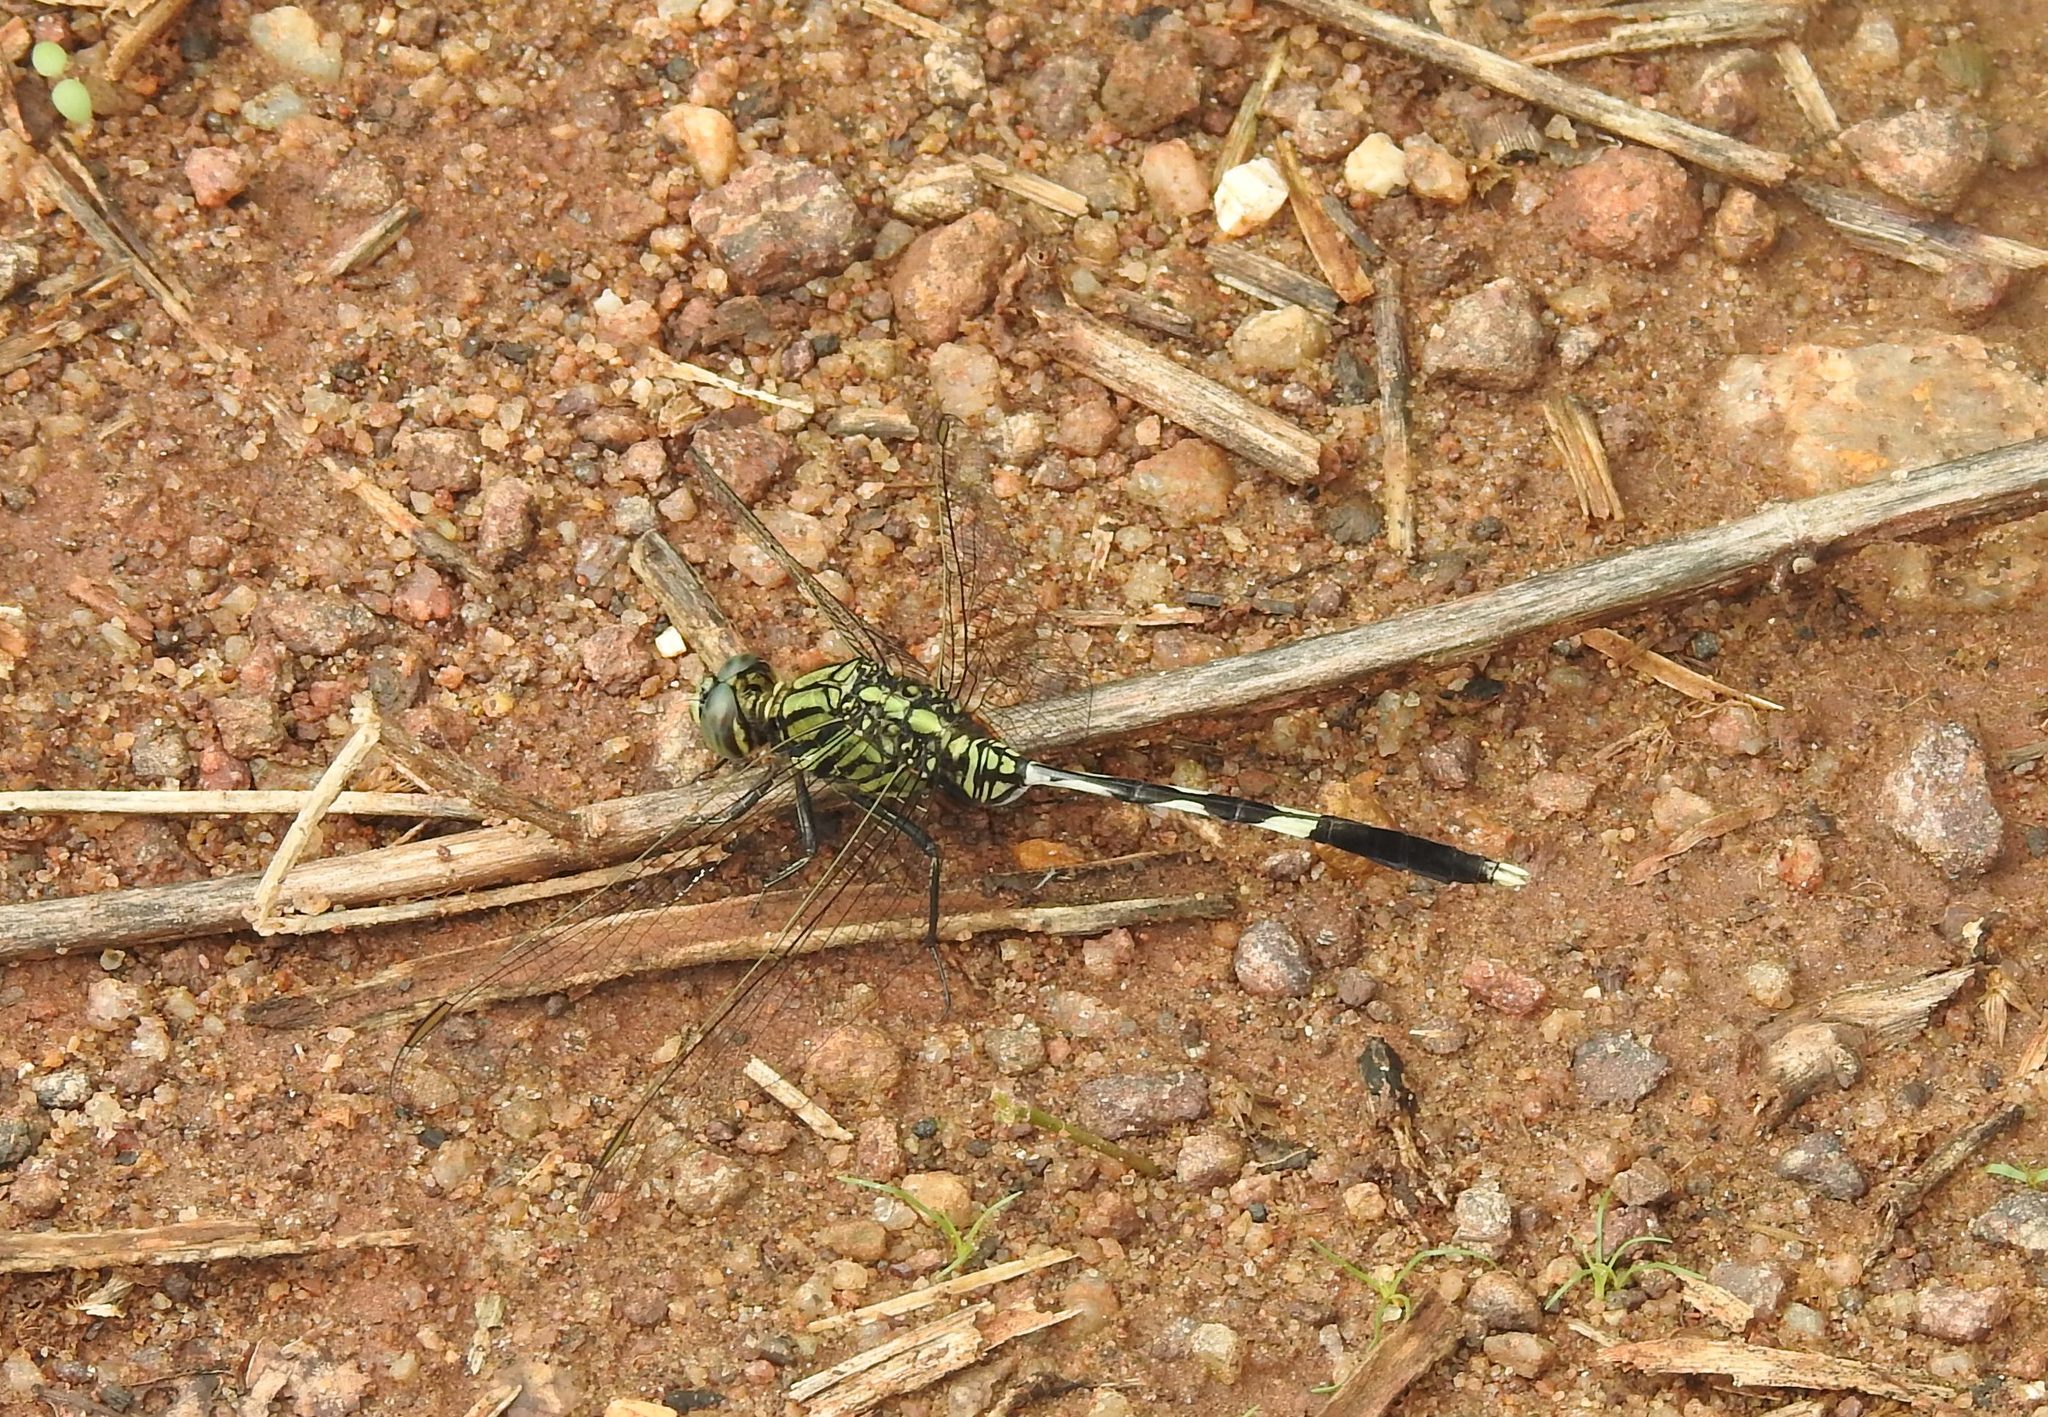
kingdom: Animalia
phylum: Arthropoda
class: Insecta
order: Odonata
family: Libellulidae
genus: Orthetrum
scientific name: Orthetrum sabina
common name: Slender skimmer
